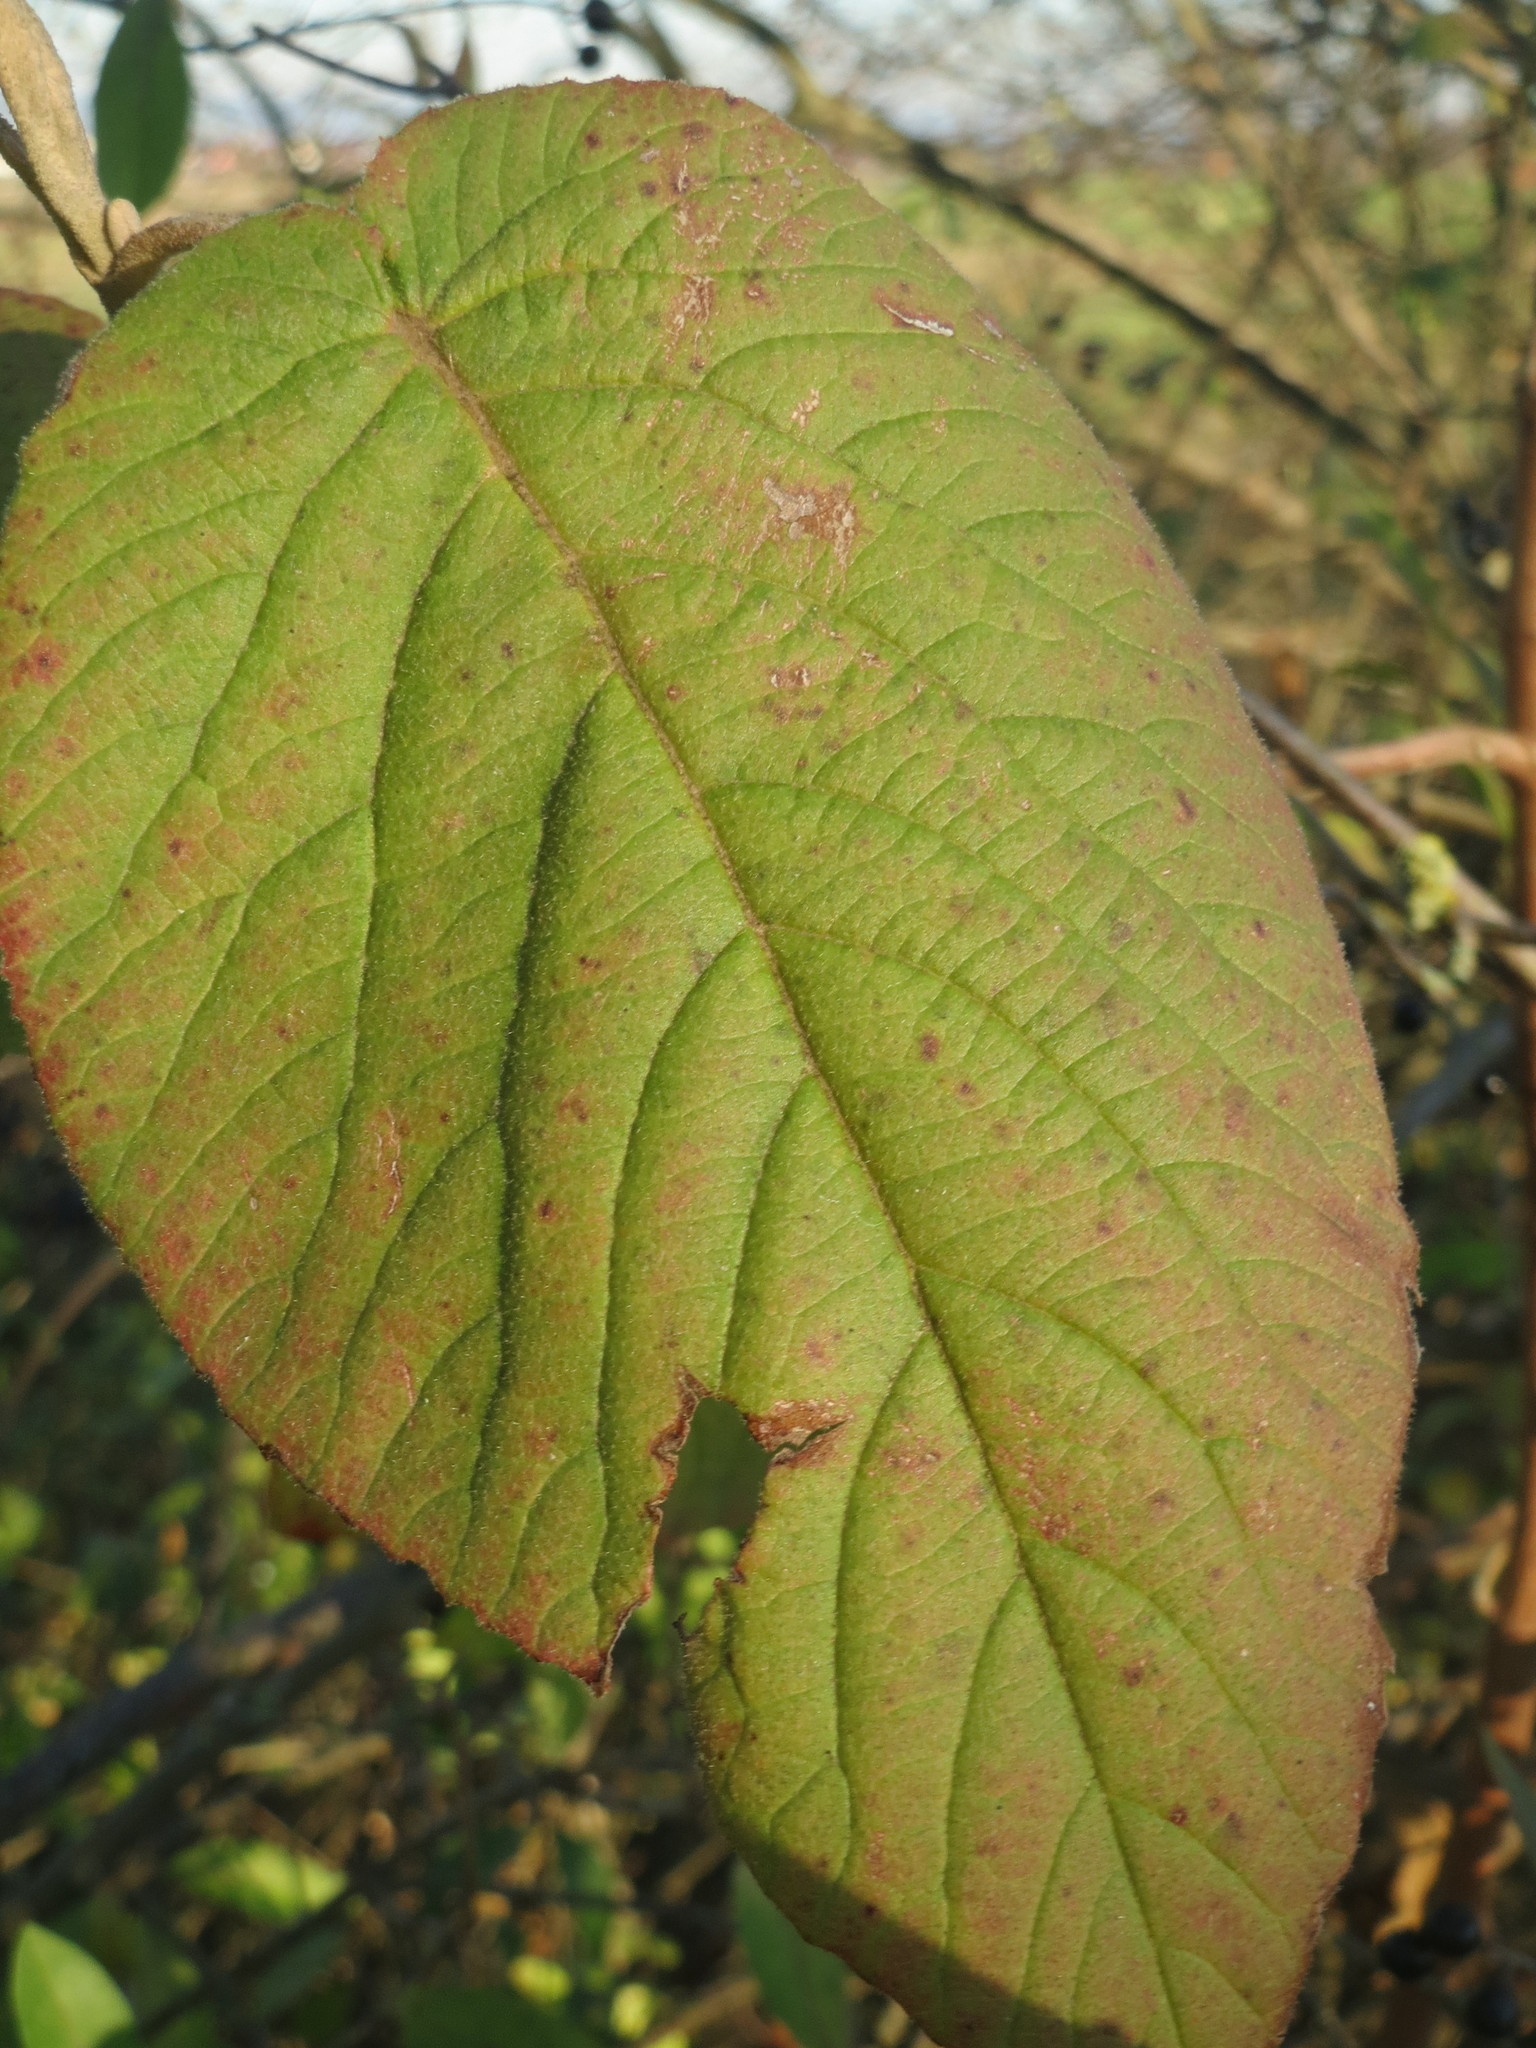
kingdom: Plantae
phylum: Tracheophyta
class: Magnoliopsida
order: Dipsacales
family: Viburnaceae
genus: Viburnum
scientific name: Viburnum lantana
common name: Wayfaring tree
